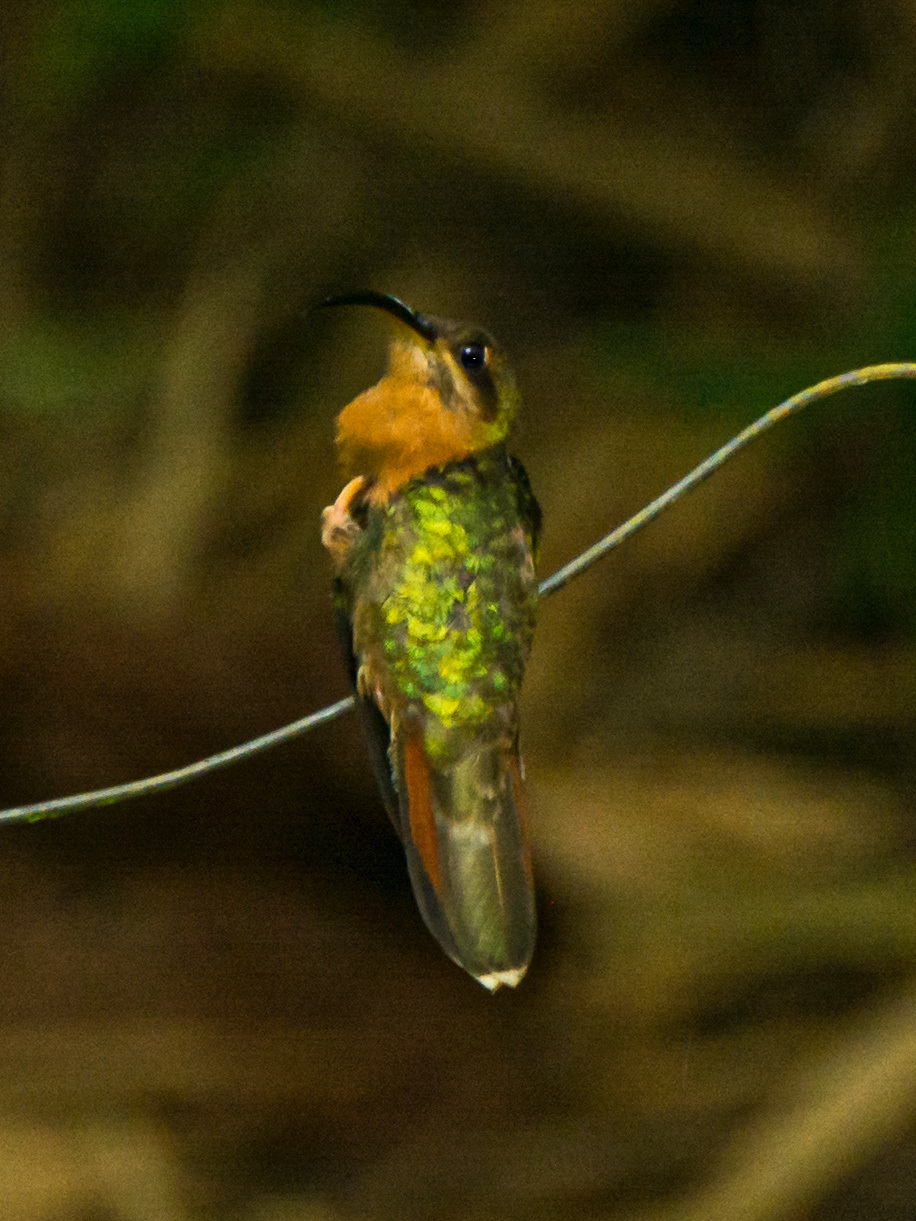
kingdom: Animalia
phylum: Chordata
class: Aves
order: Apodiformes
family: Trochilidae
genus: Glaucis
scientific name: Glaucis hirsutus
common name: Rufous-breasted hermit
